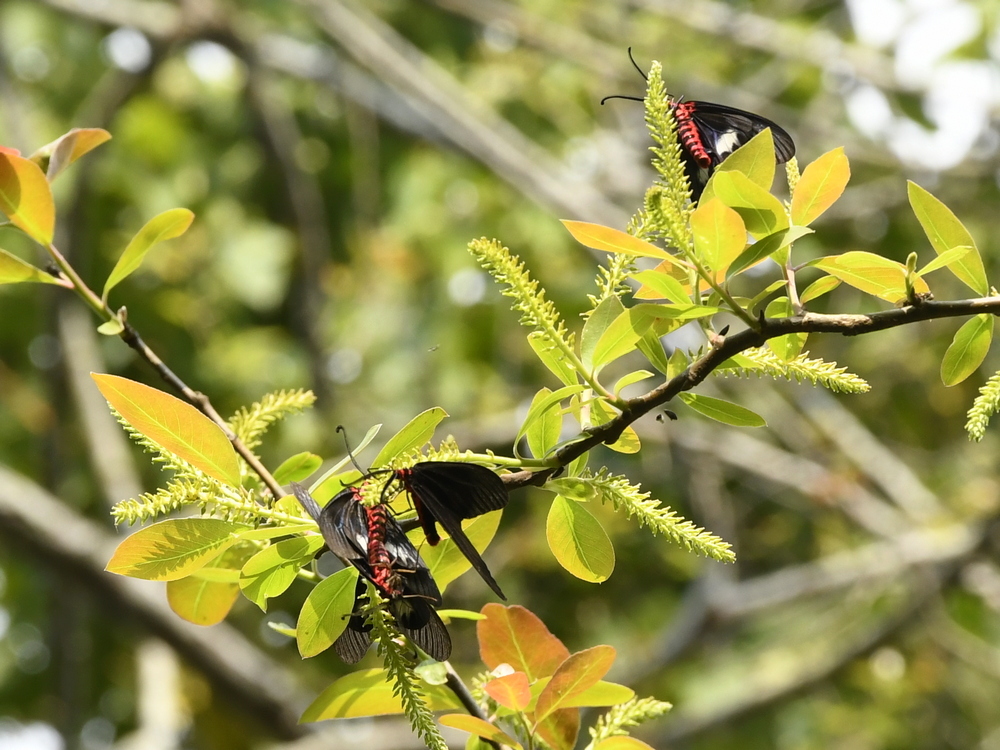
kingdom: Animalia
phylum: Arthropoda
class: Insecta
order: Lepidoptera
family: Zygaenidae
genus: Gynautocera
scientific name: Gynautocera papilionaria
